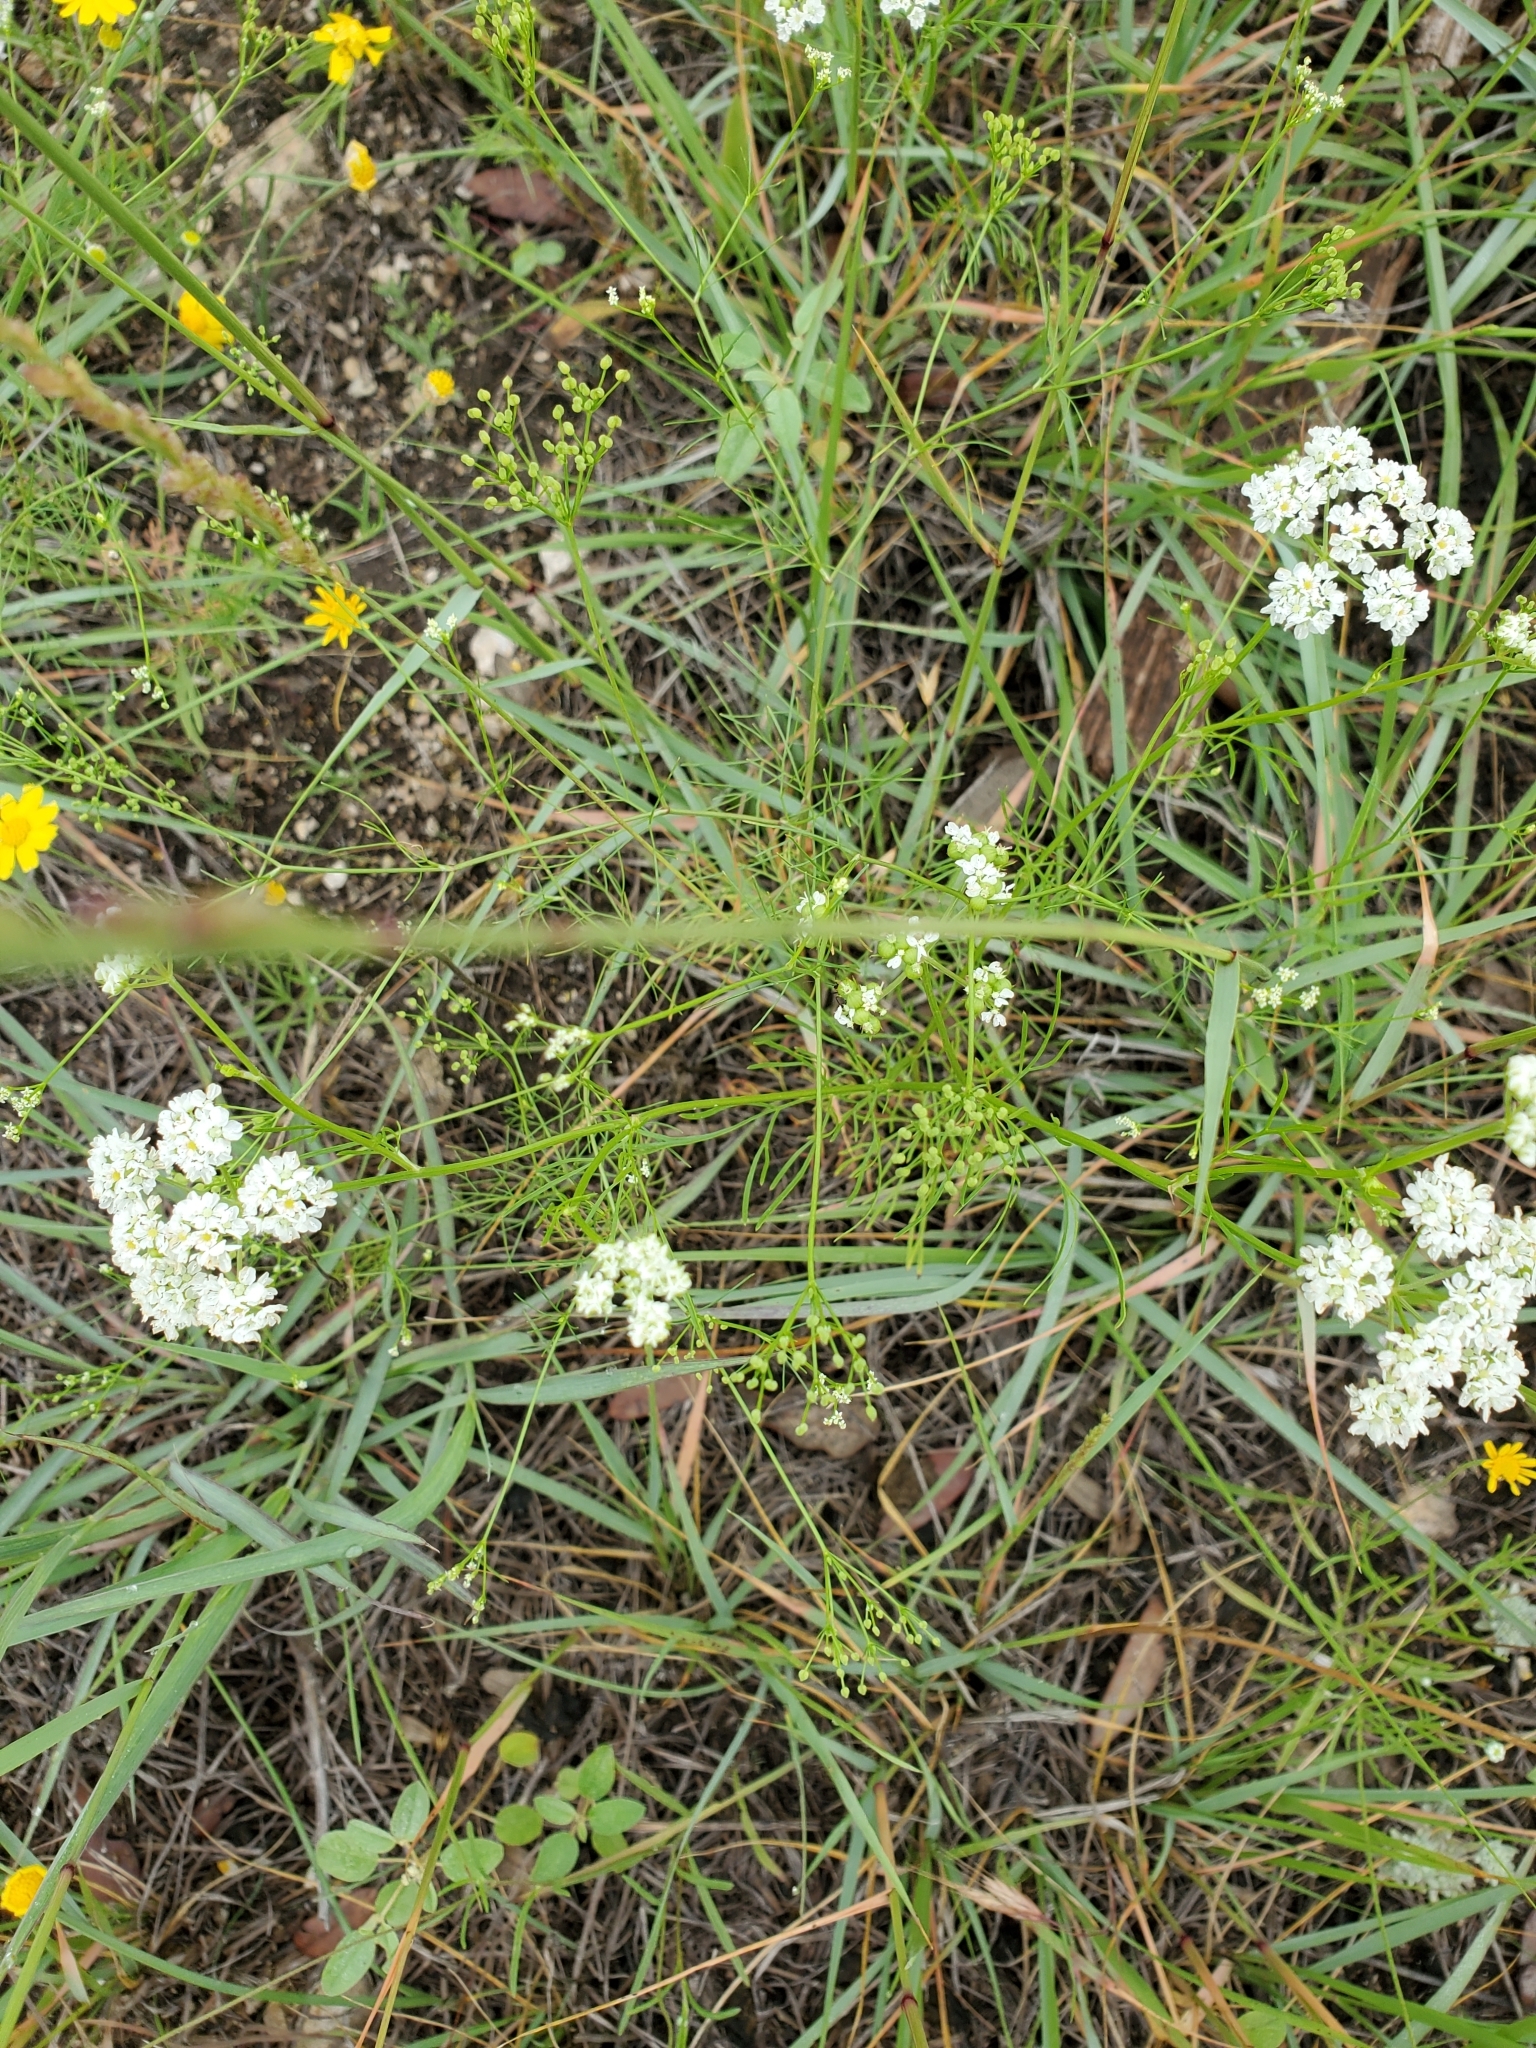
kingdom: Plantae
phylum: Tracheophyta
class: Magnoliopsida
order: Apiales
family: Apiaceae
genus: Atrema
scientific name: Atrema americanum
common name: Prairie-bishop
